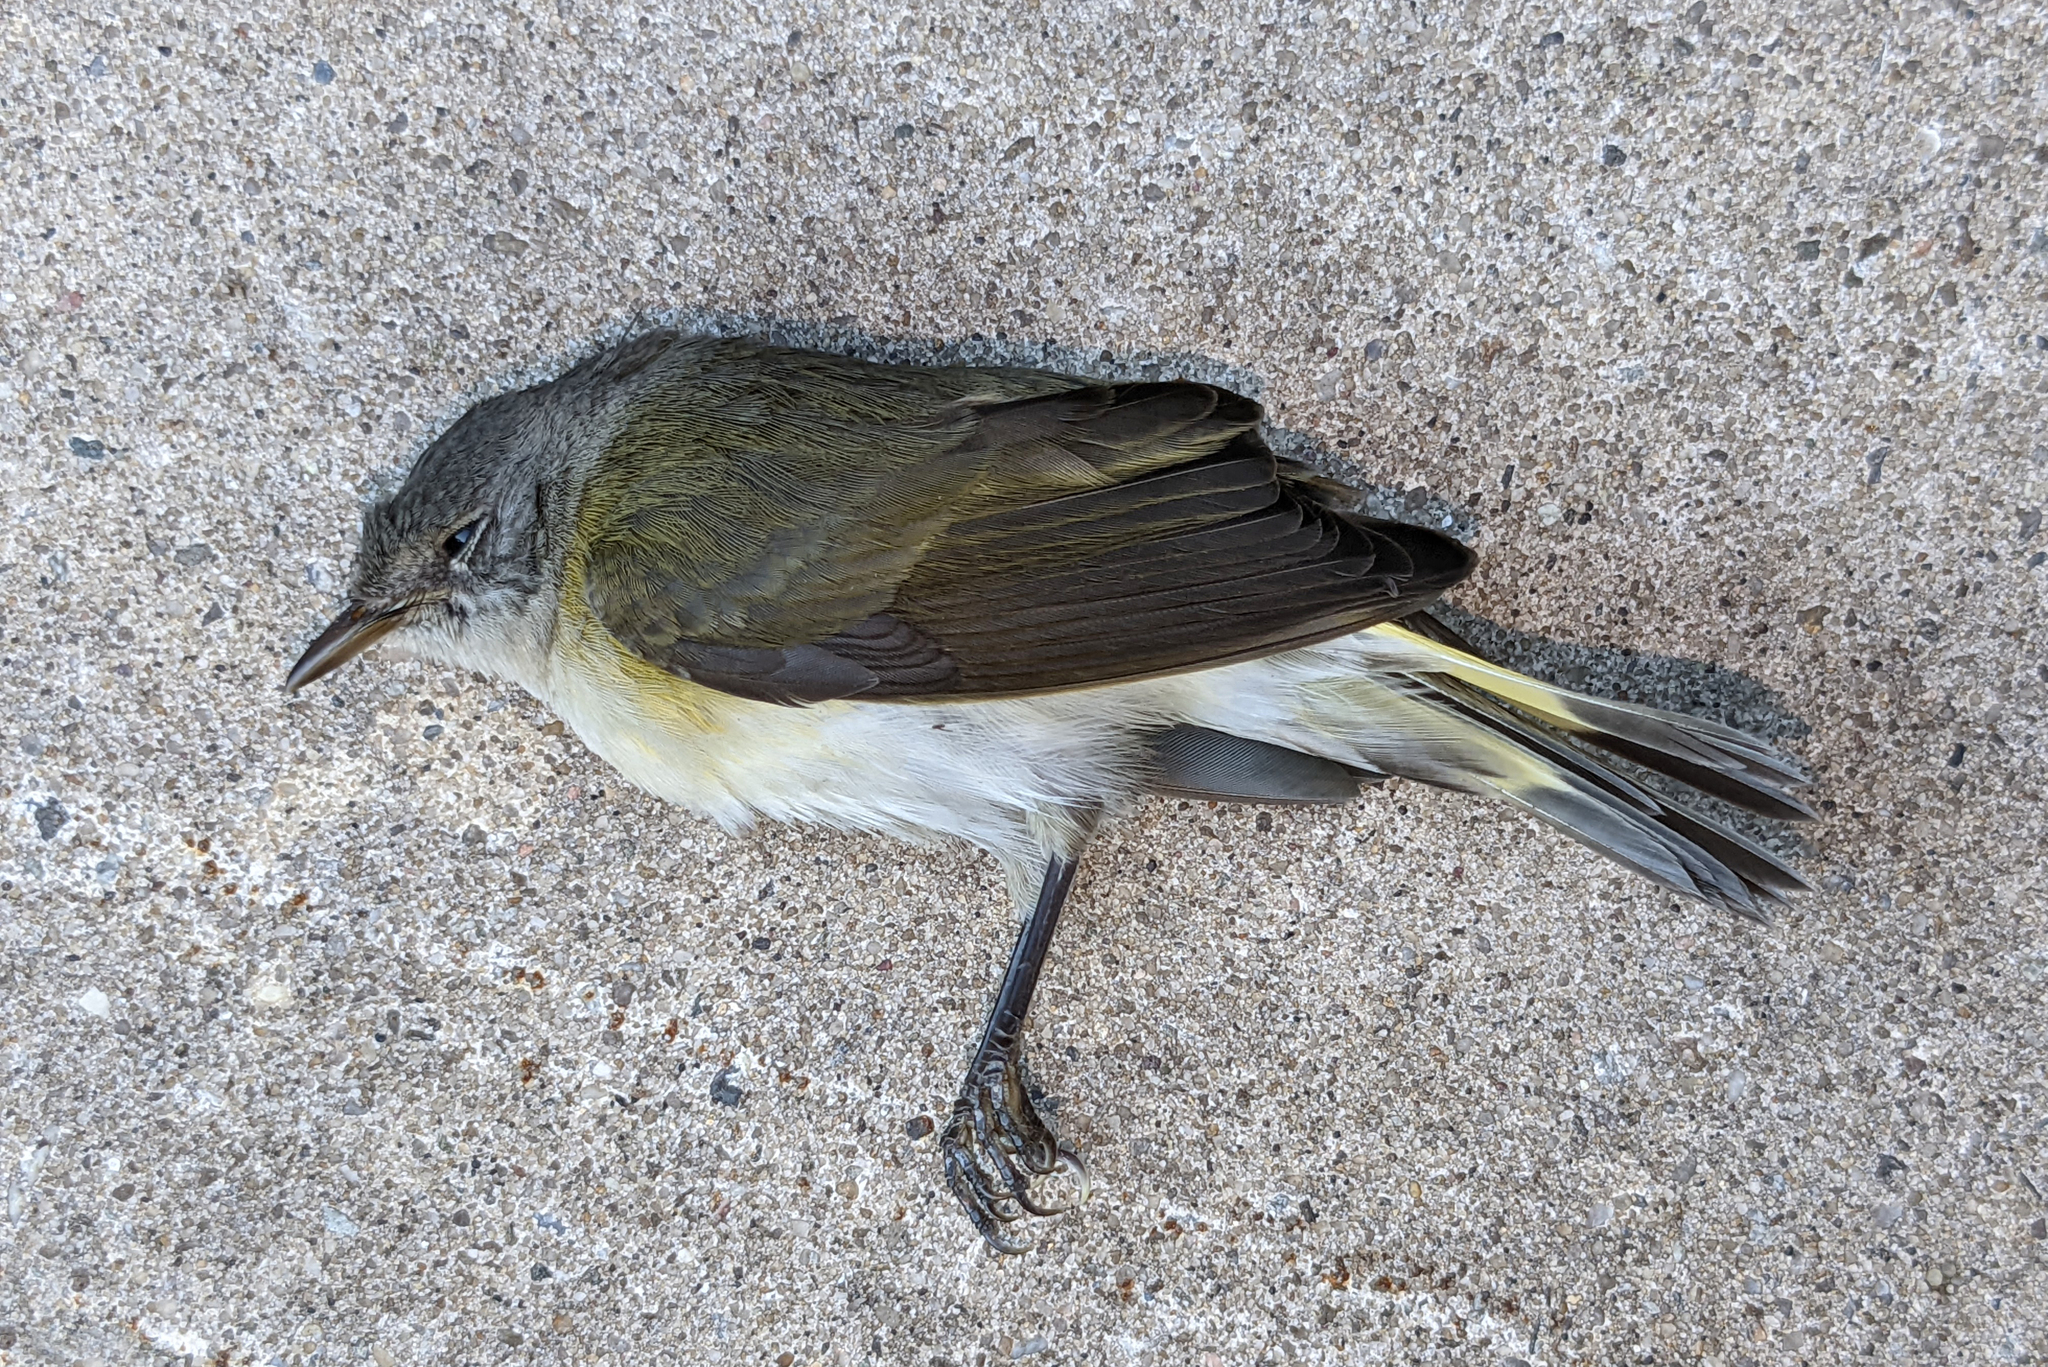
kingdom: Animalia
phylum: Chordata
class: Aves
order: Passeriformes
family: Parulidae
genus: Setophaga
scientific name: Setophaga ruticilla
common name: American redstart
